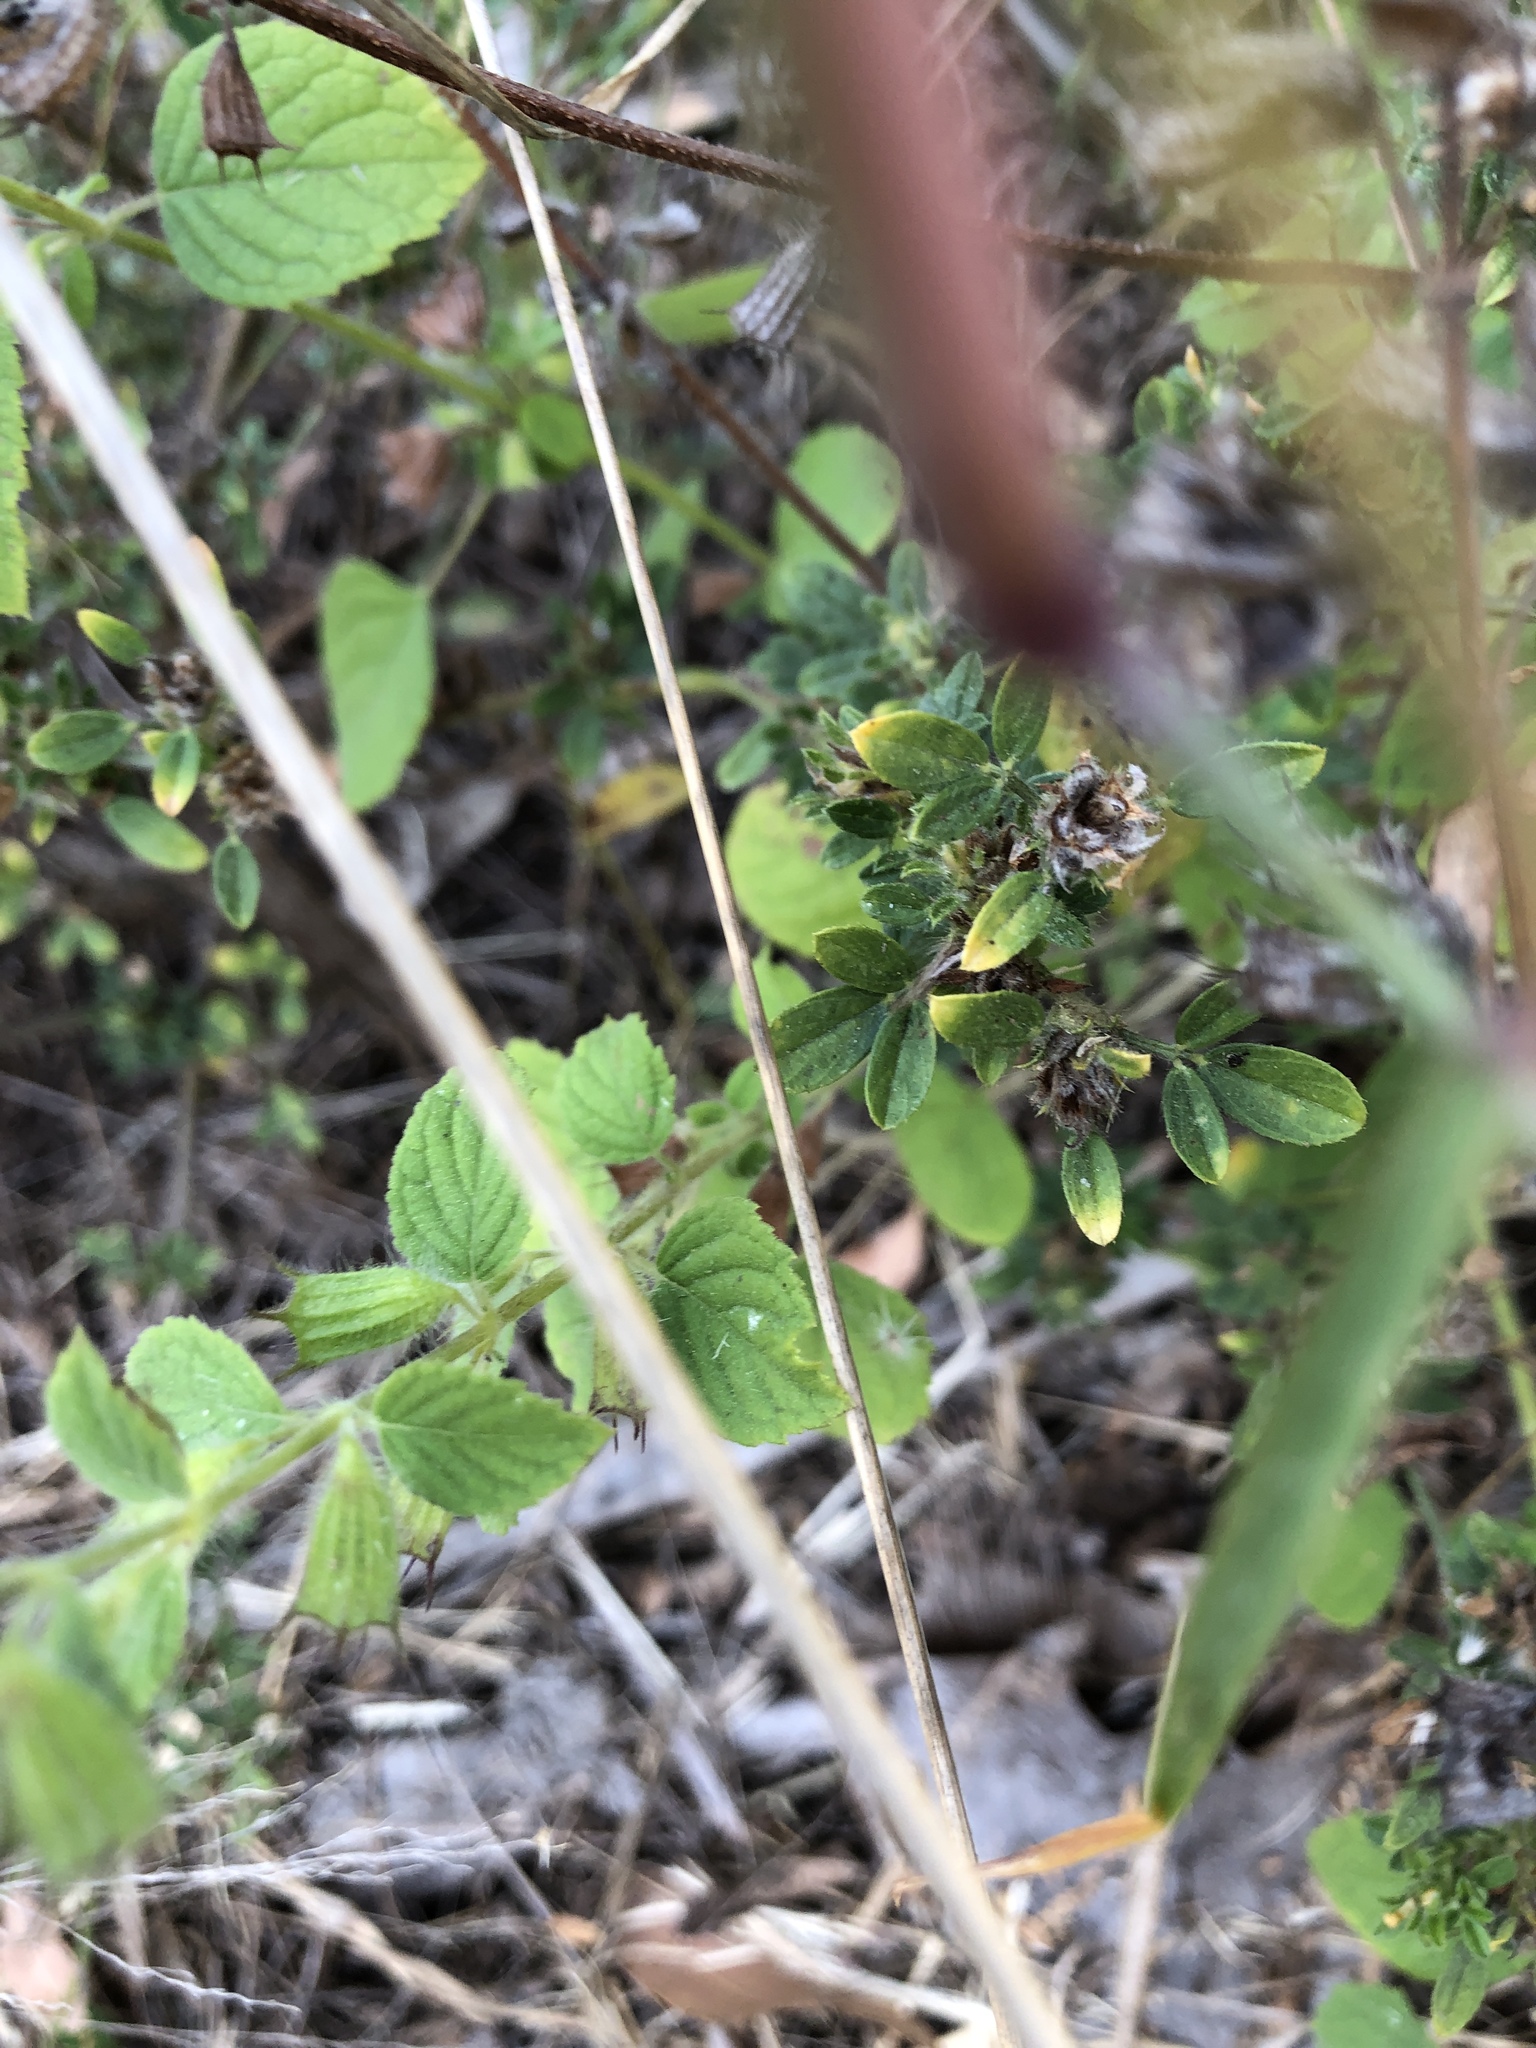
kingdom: Plantae
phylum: Tracheophyta
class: Magnoliopsida
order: Lamiales
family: Lamiaceae
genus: Mesosphaerum
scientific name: Mesosphaerum suaveolens
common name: Pignut
